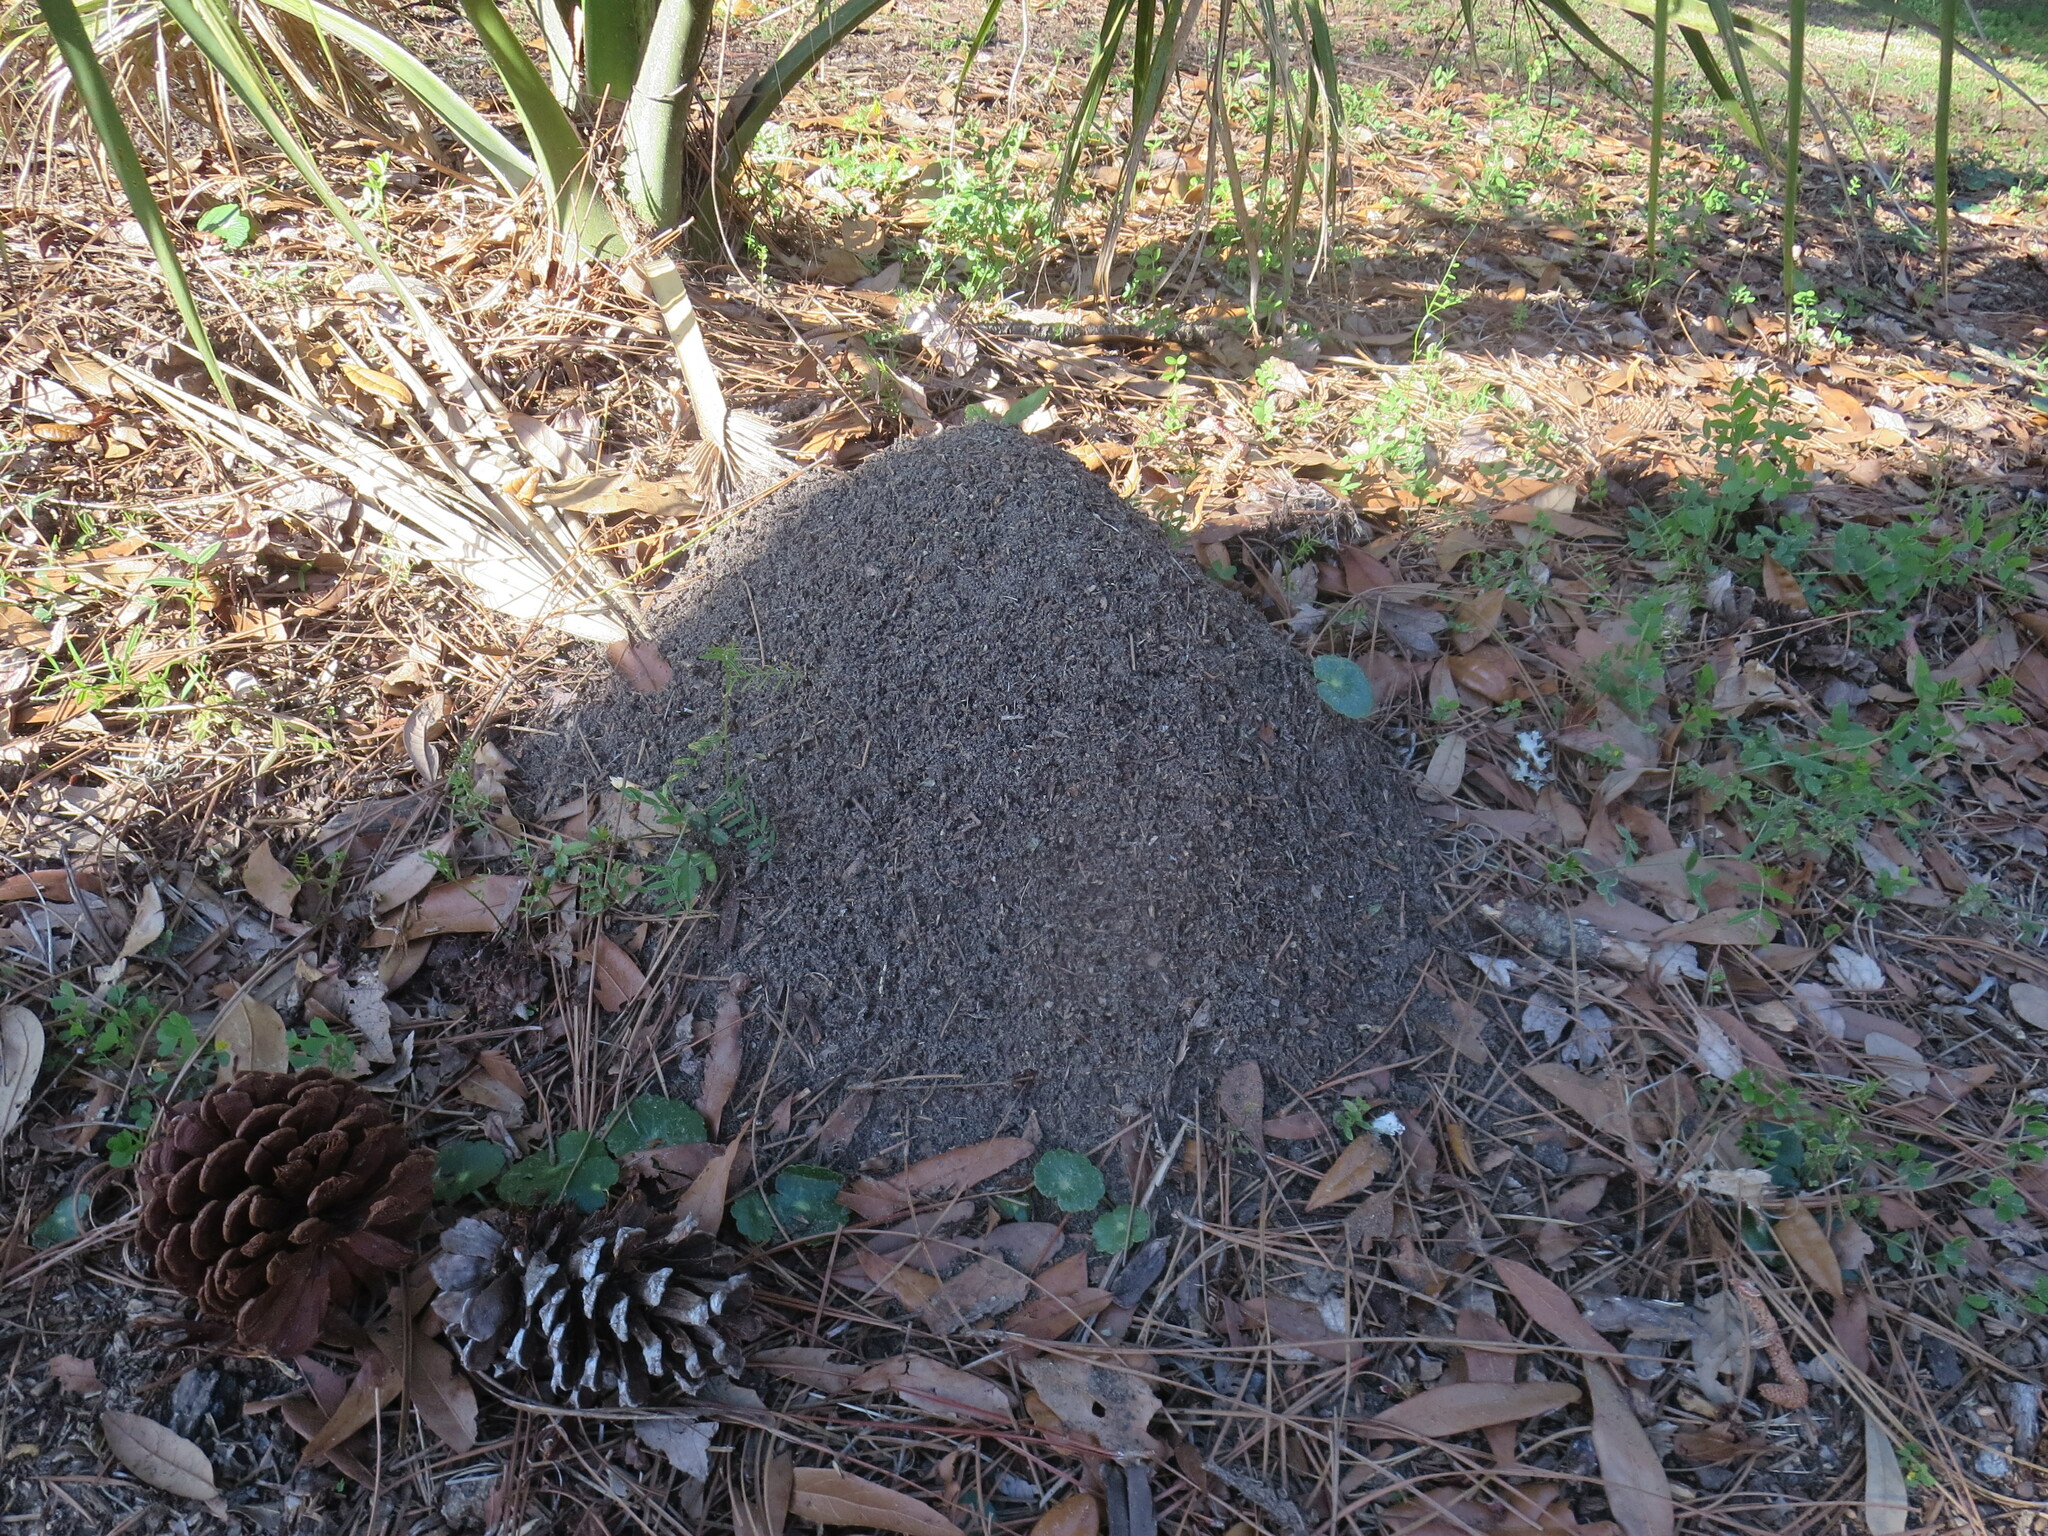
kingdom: Animalia
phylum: Arthropoda
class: Insecta
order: Hymenoptera
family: Formicidae
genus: Solenopsis
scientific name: Solenopsis invicta
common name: Red imported fire ant
